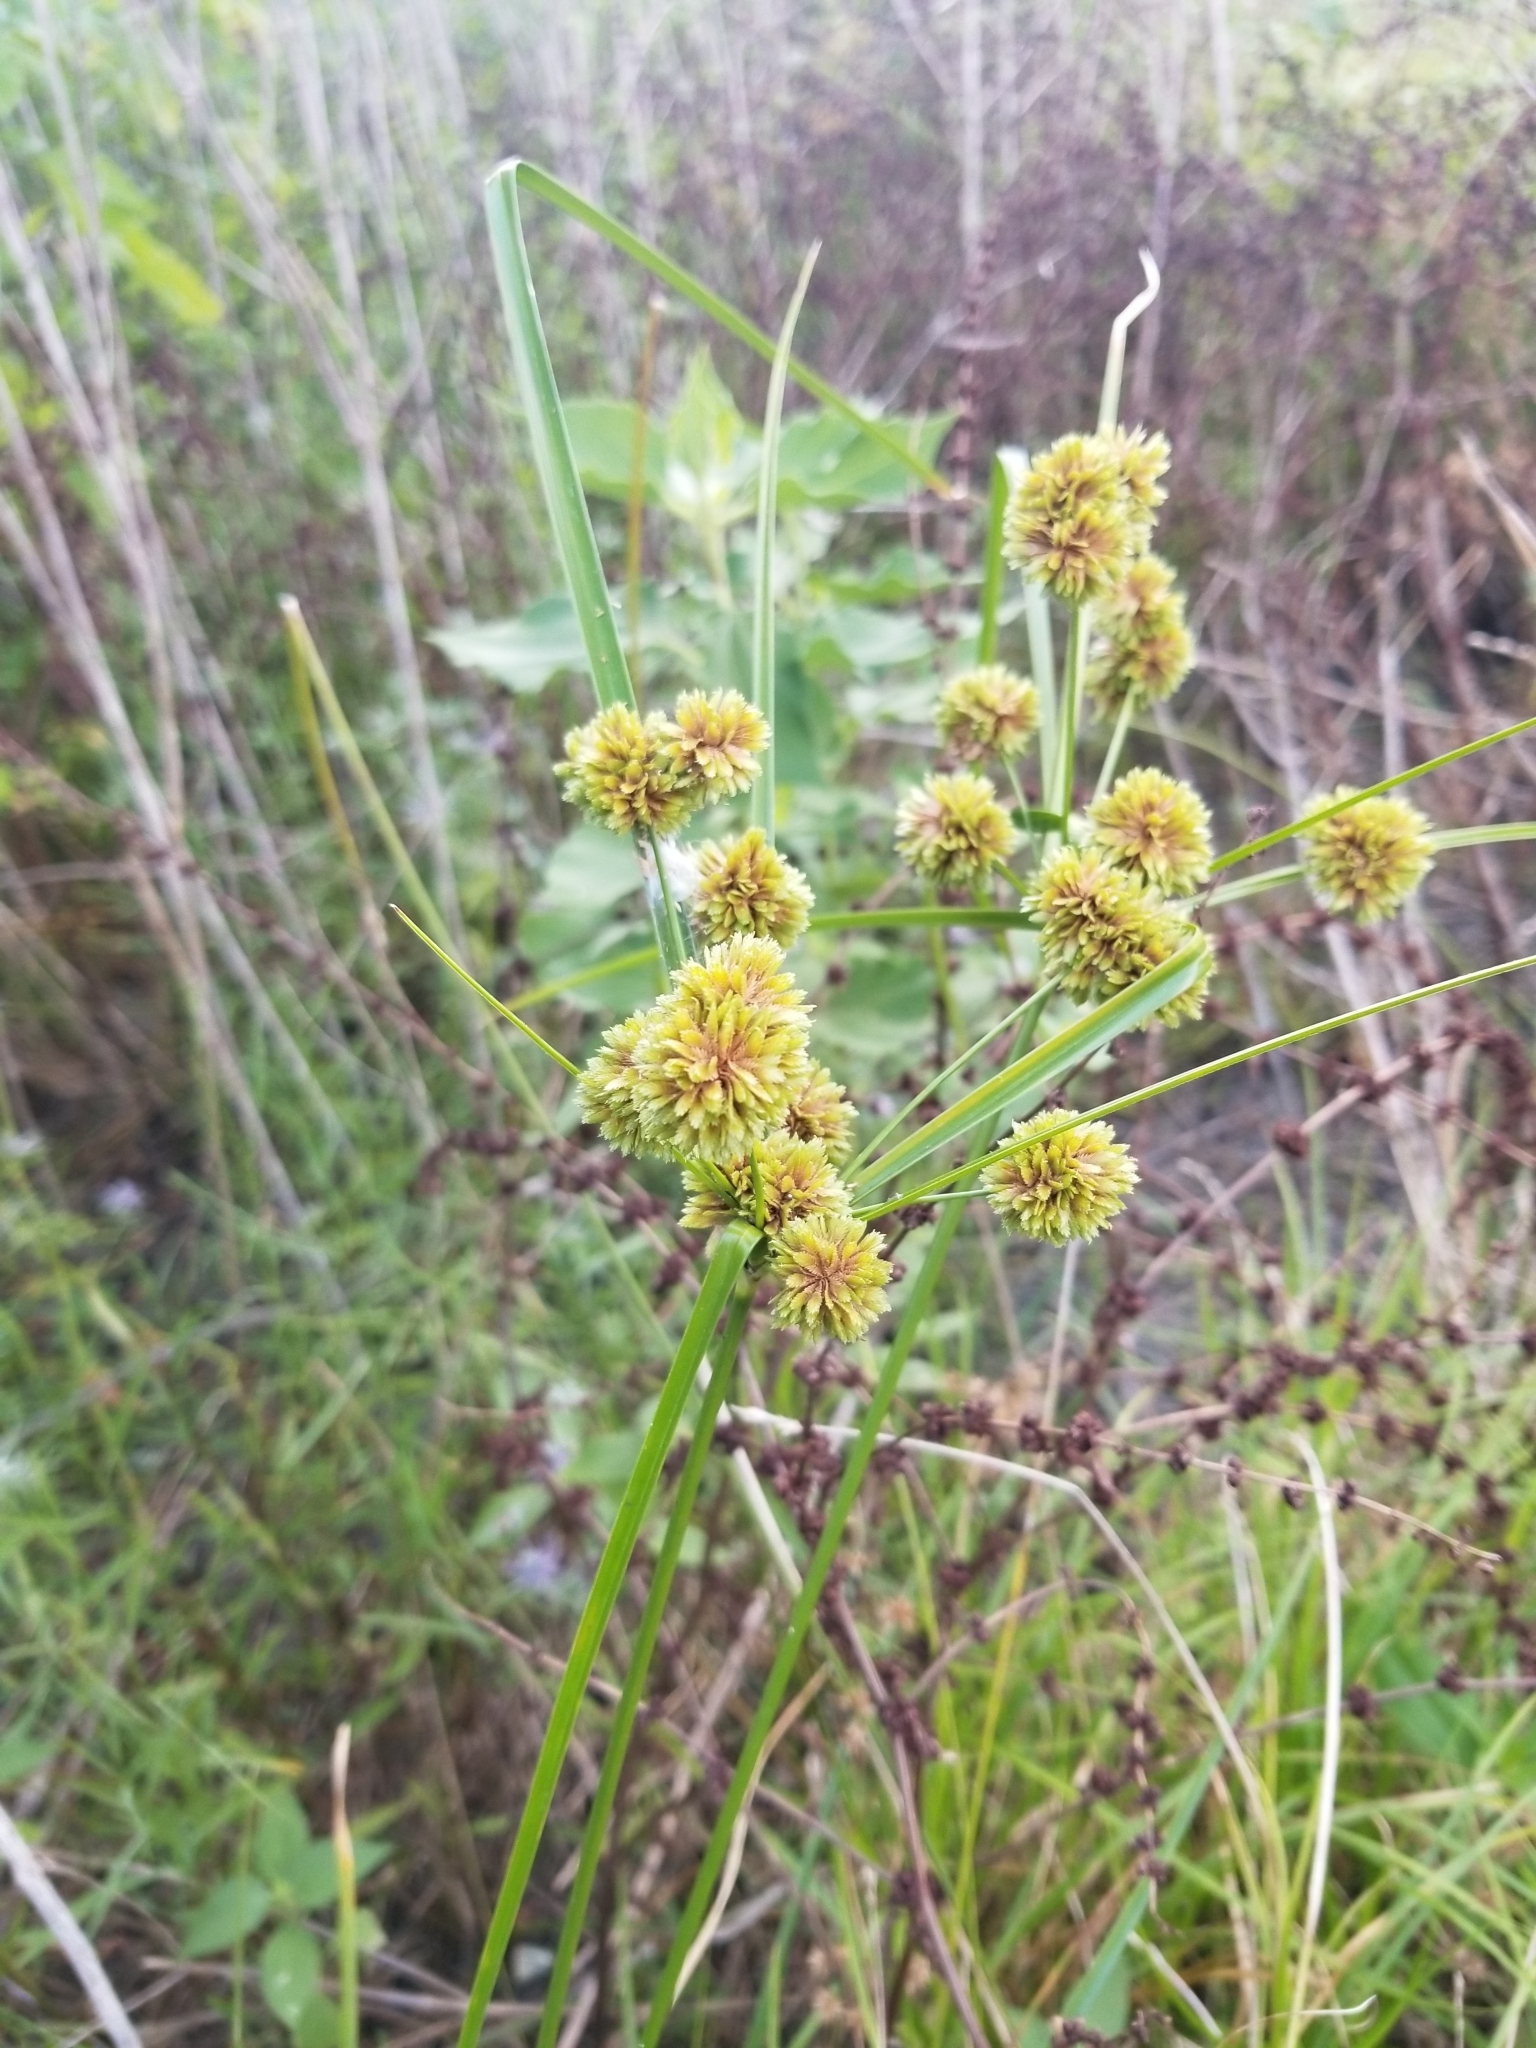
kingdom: Plantae
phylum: Tracheophyta
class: Liliopsida
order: Poales
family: Cyperaceae
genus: Cyperus
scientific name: Cyperus entrerianus
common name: Woodrush flatsedge
